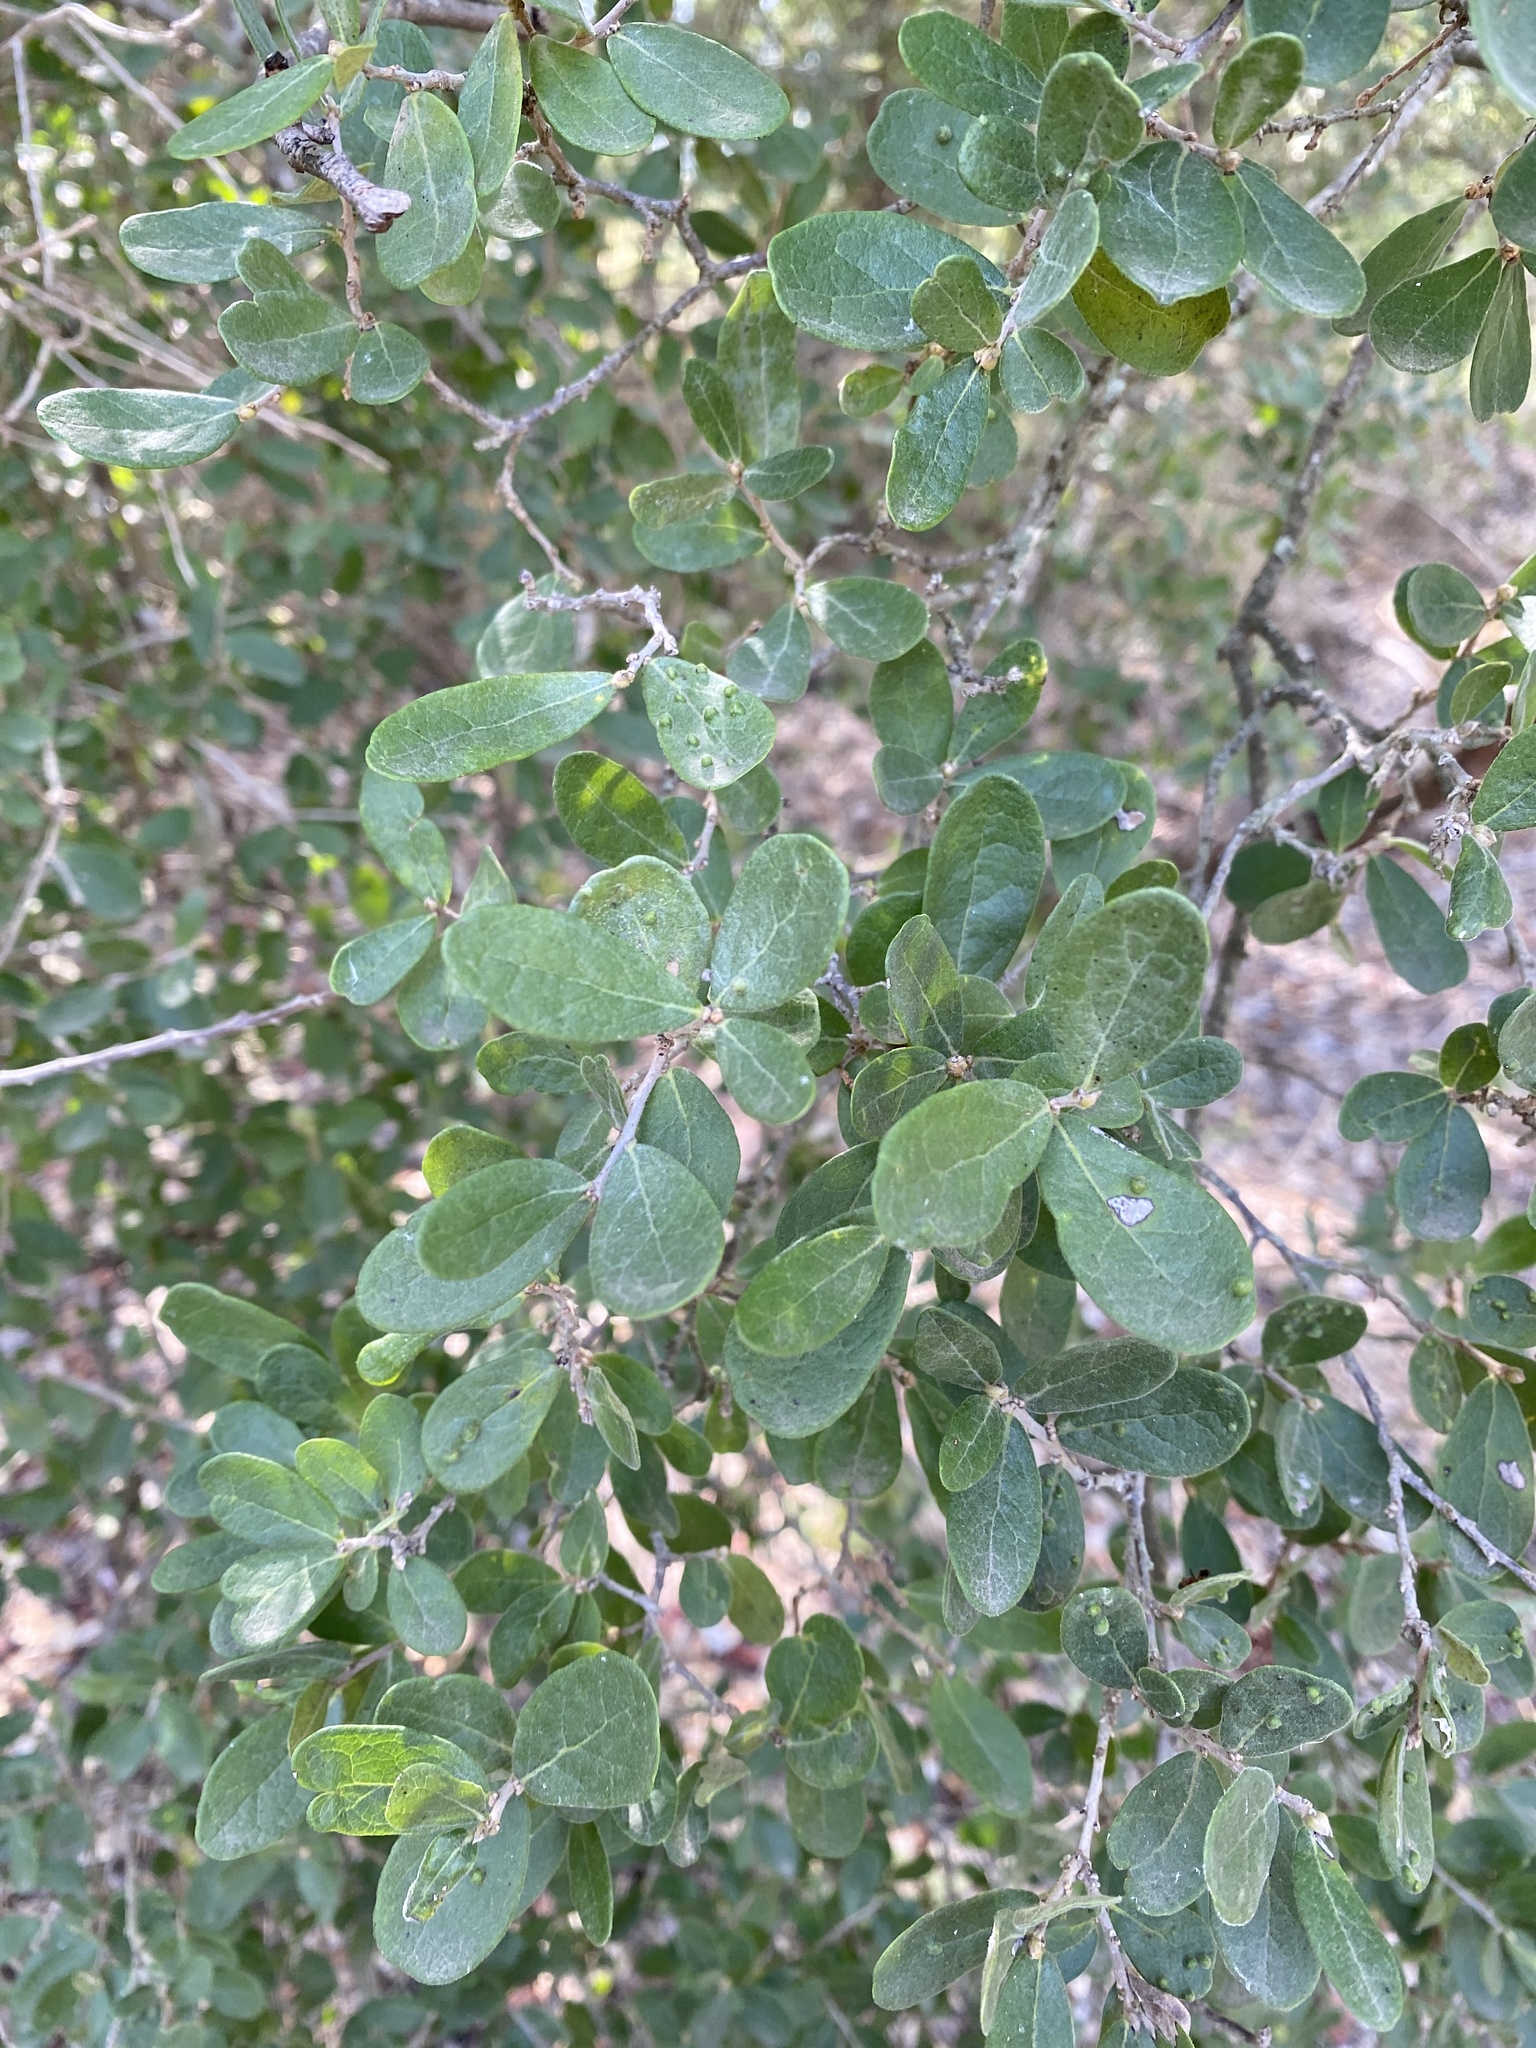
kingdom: Plantae
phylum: Tracheophyta
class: Magnoliopsida
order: Ericales
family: Ebenaceae
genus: Diospyros
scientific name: Diospyros texana
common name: Texas persimmon
